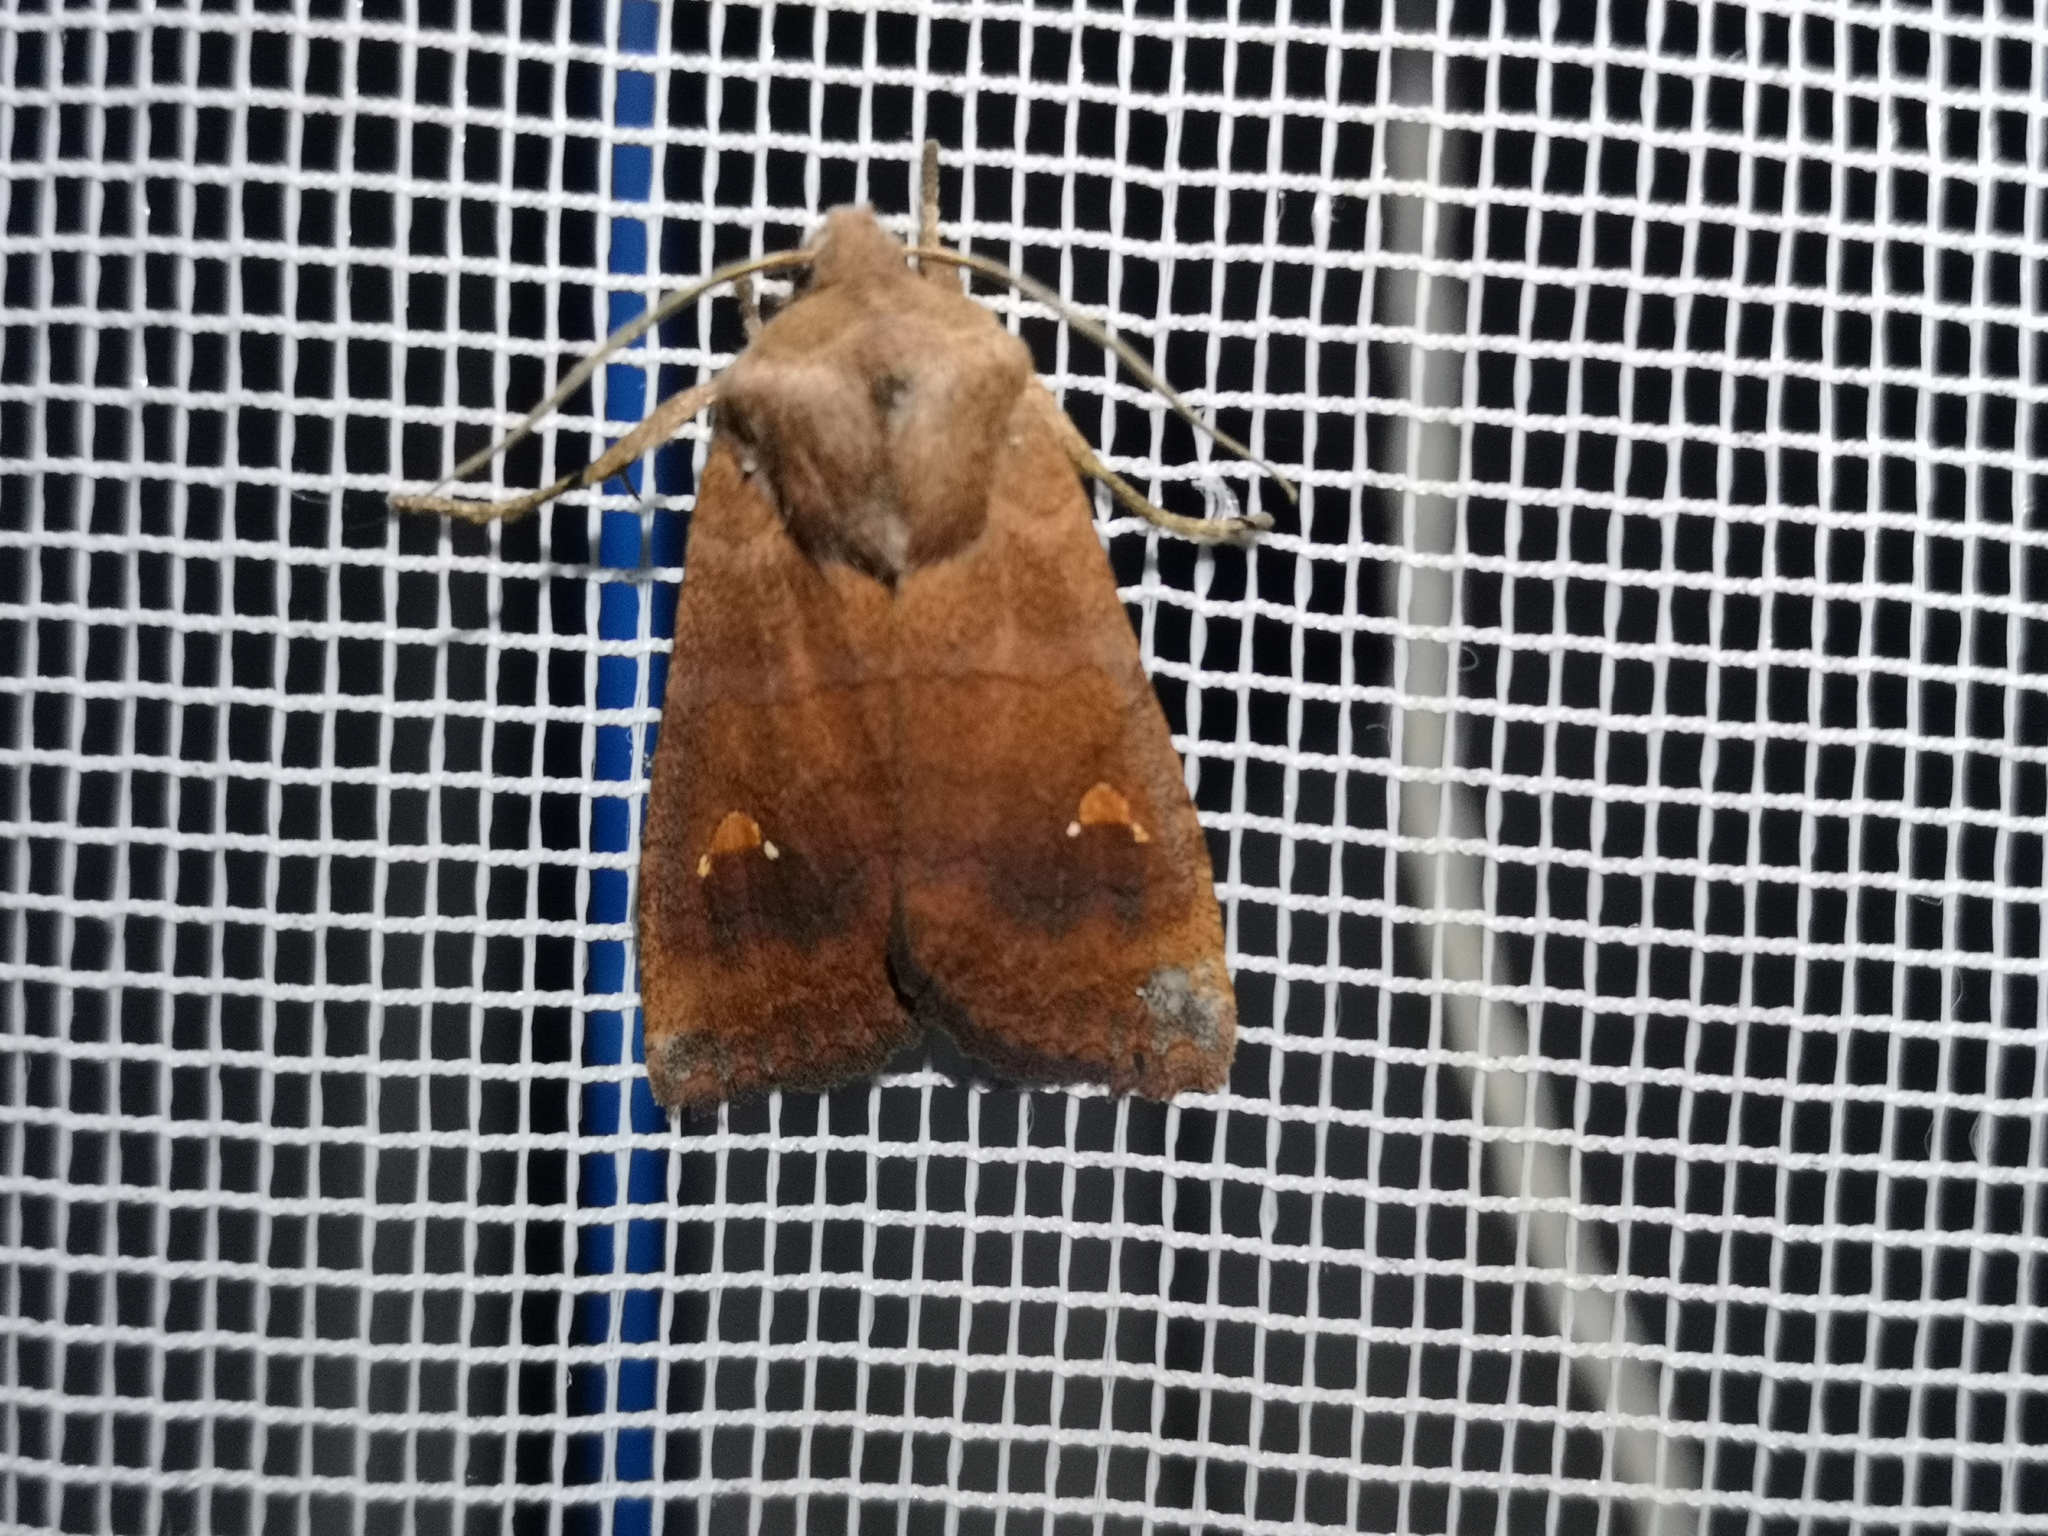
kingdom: Animalia
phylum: Arthropoda
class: Insecta
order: Lepidoptera
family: Noctuidae
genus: Eupsilia
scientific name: Eupsilia transversa
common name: Satellite
